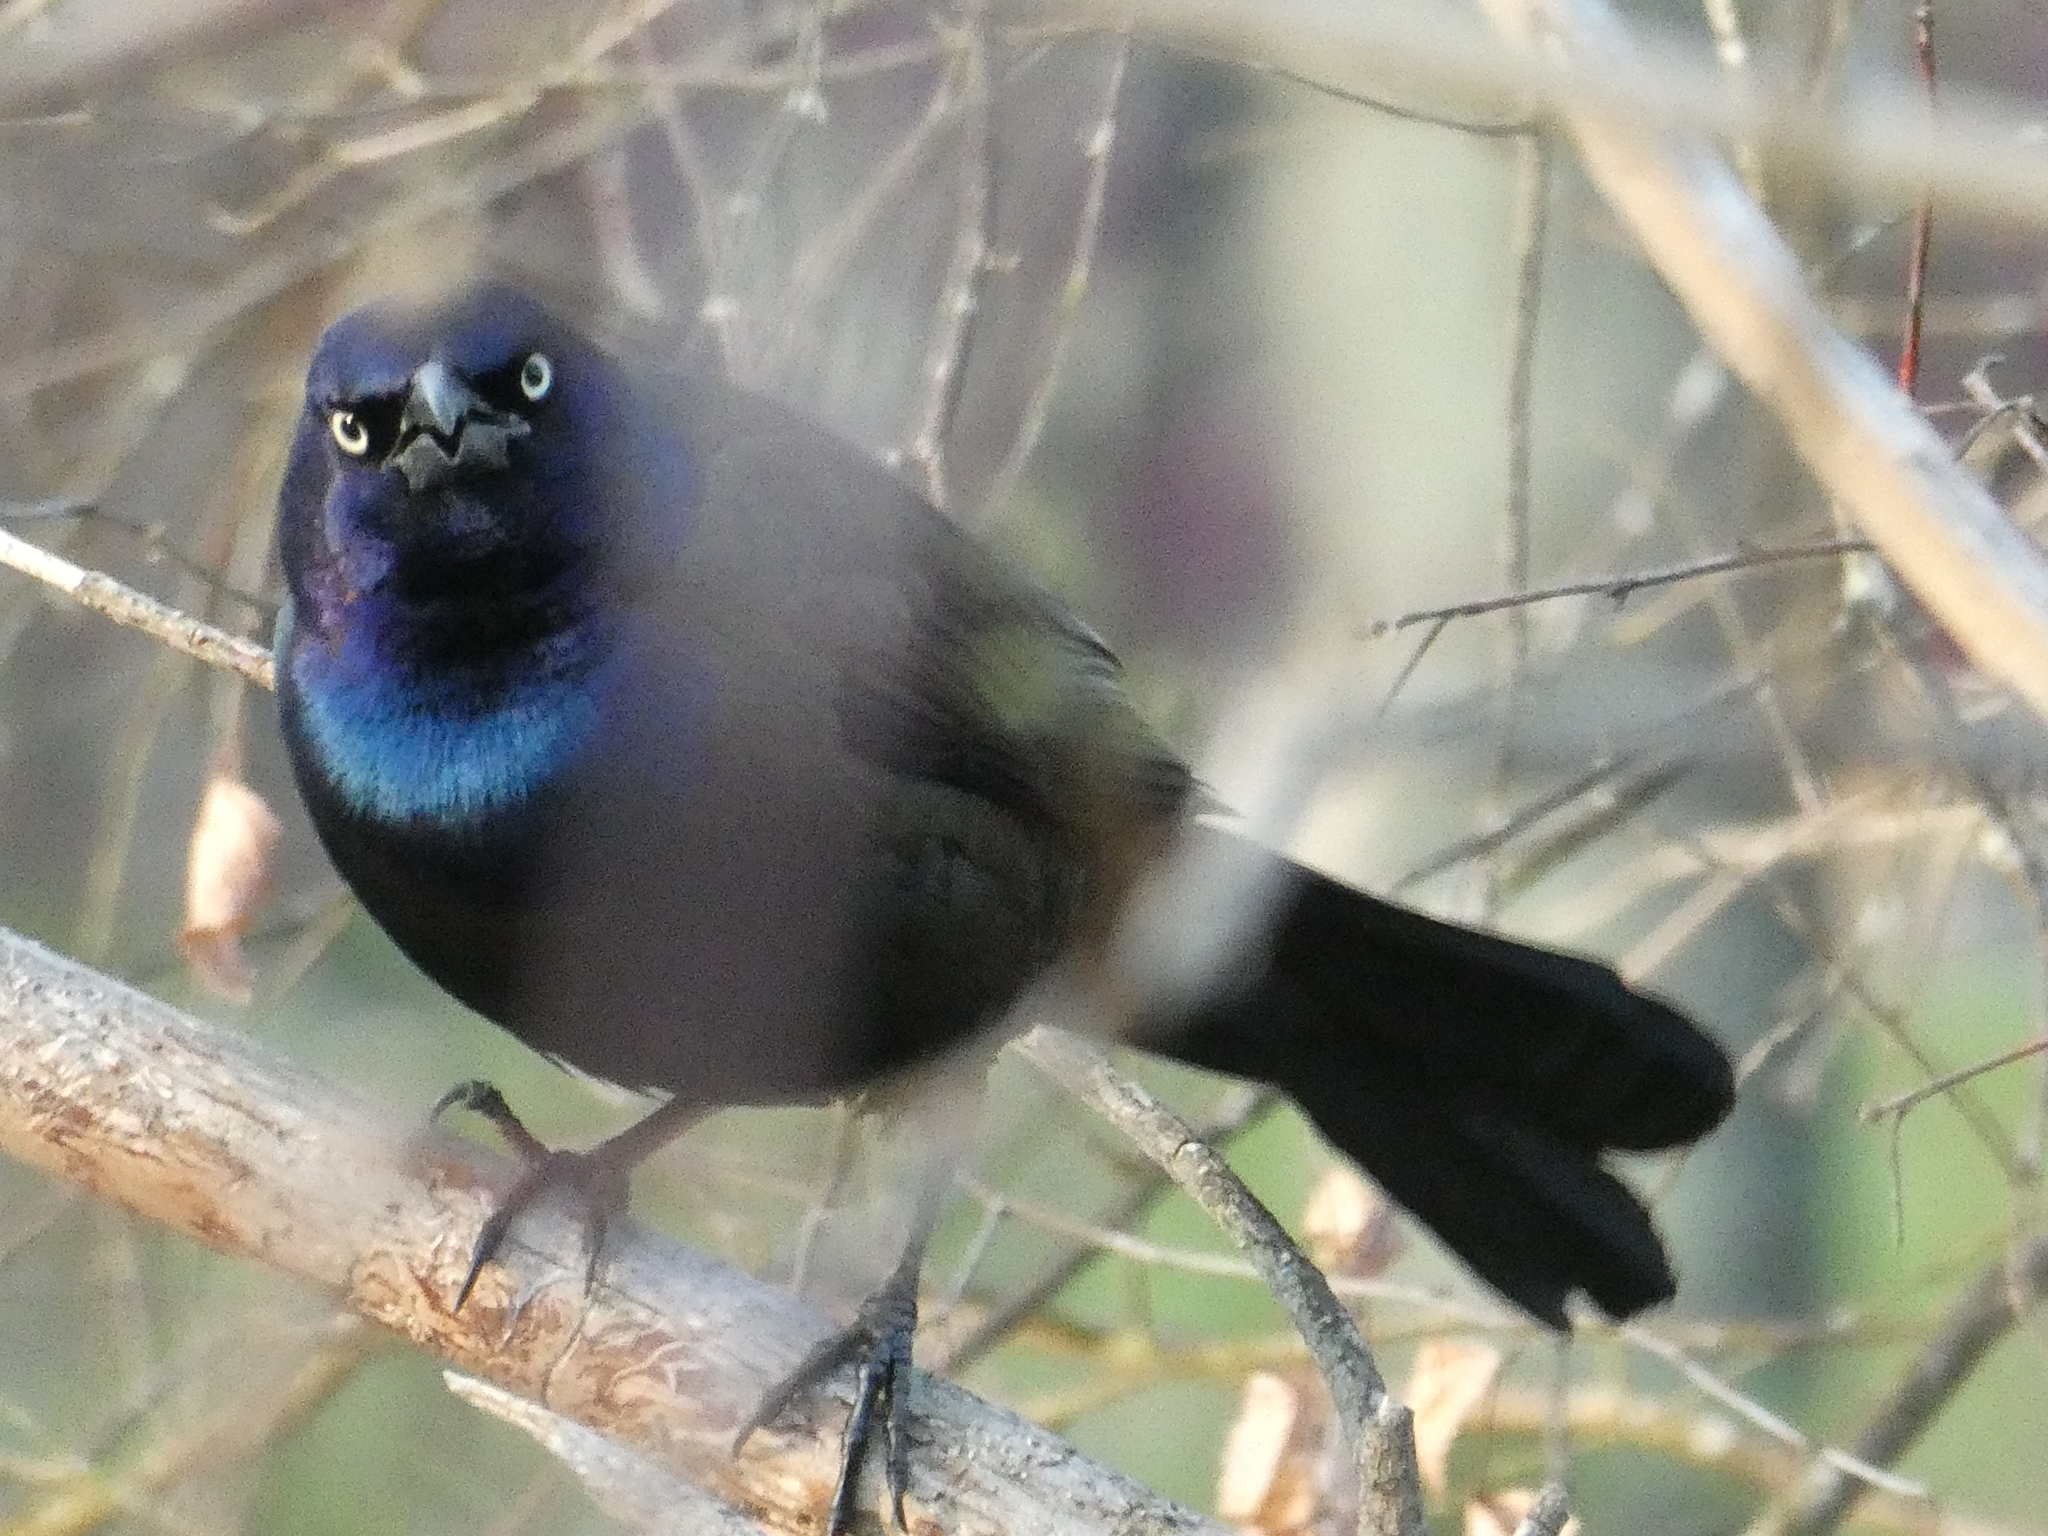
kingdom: Animalia
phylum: Chordata
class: Aves
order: Passeriformes
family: Icteridae
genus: Quiscalus
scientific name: Quiscalus quiscula
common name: Common grackle
